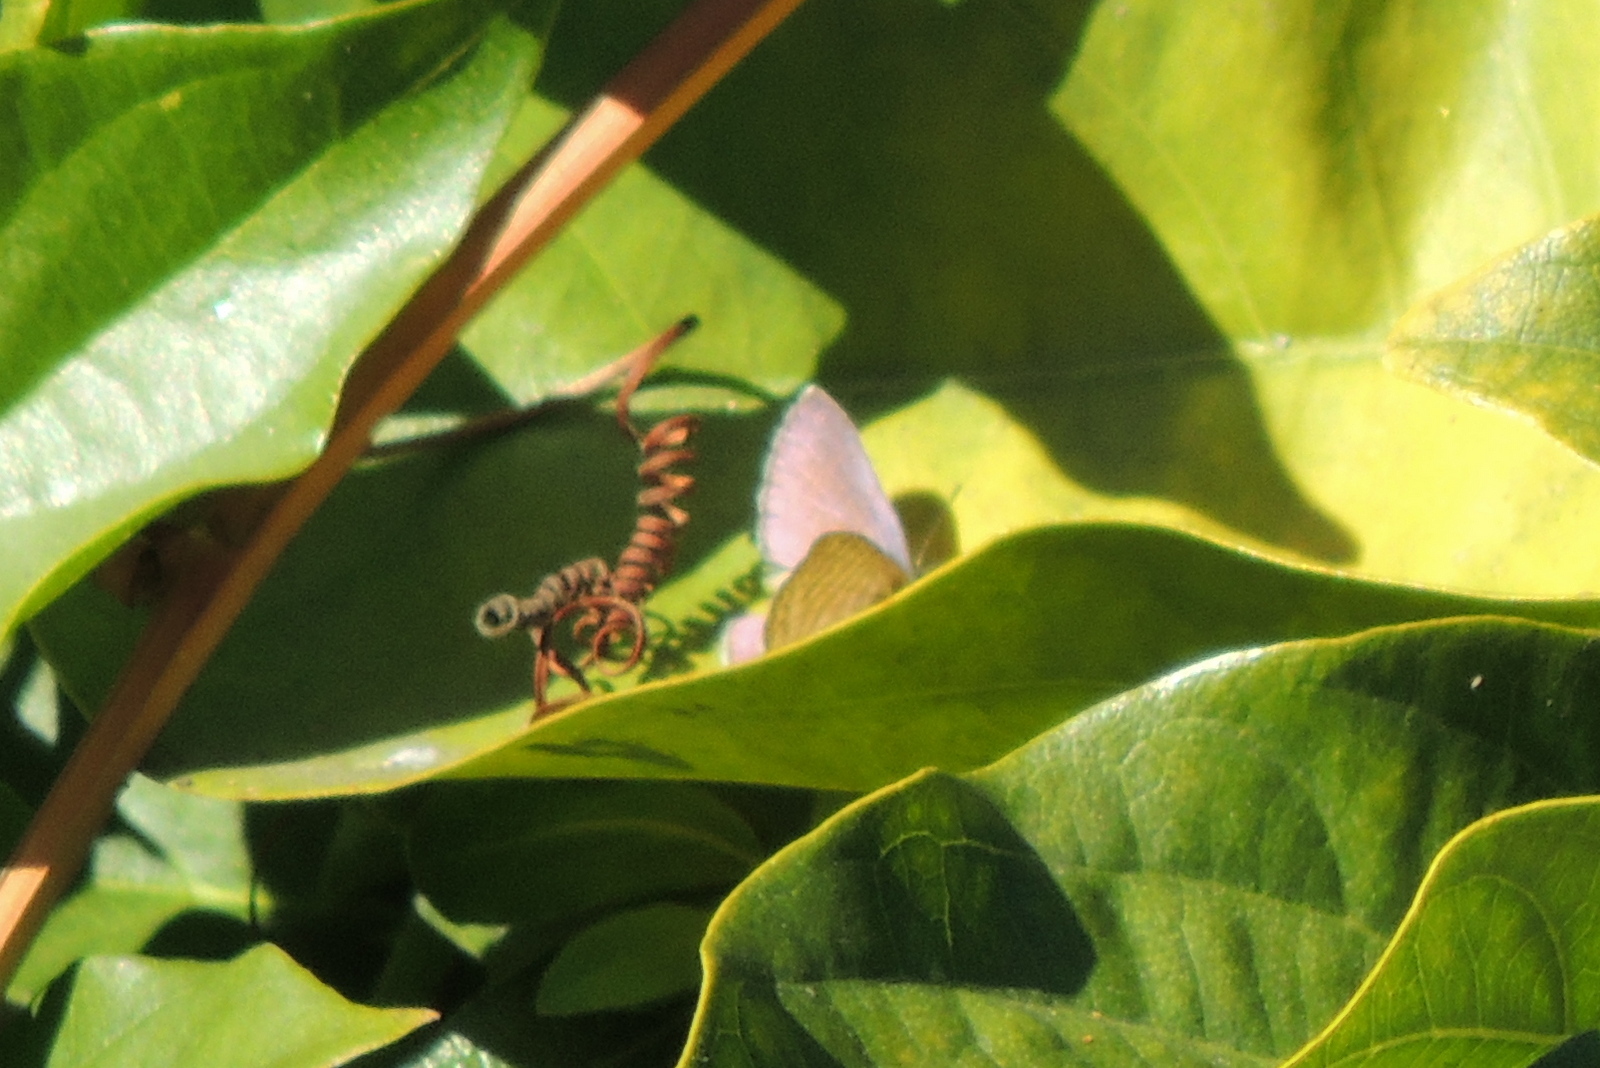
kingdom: Animalia
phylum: Arthropoda
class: Insecta
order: Lepidoptera
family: Lycaenidae
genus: Leptotes
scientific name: Leptotes marina
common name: Marine blue
